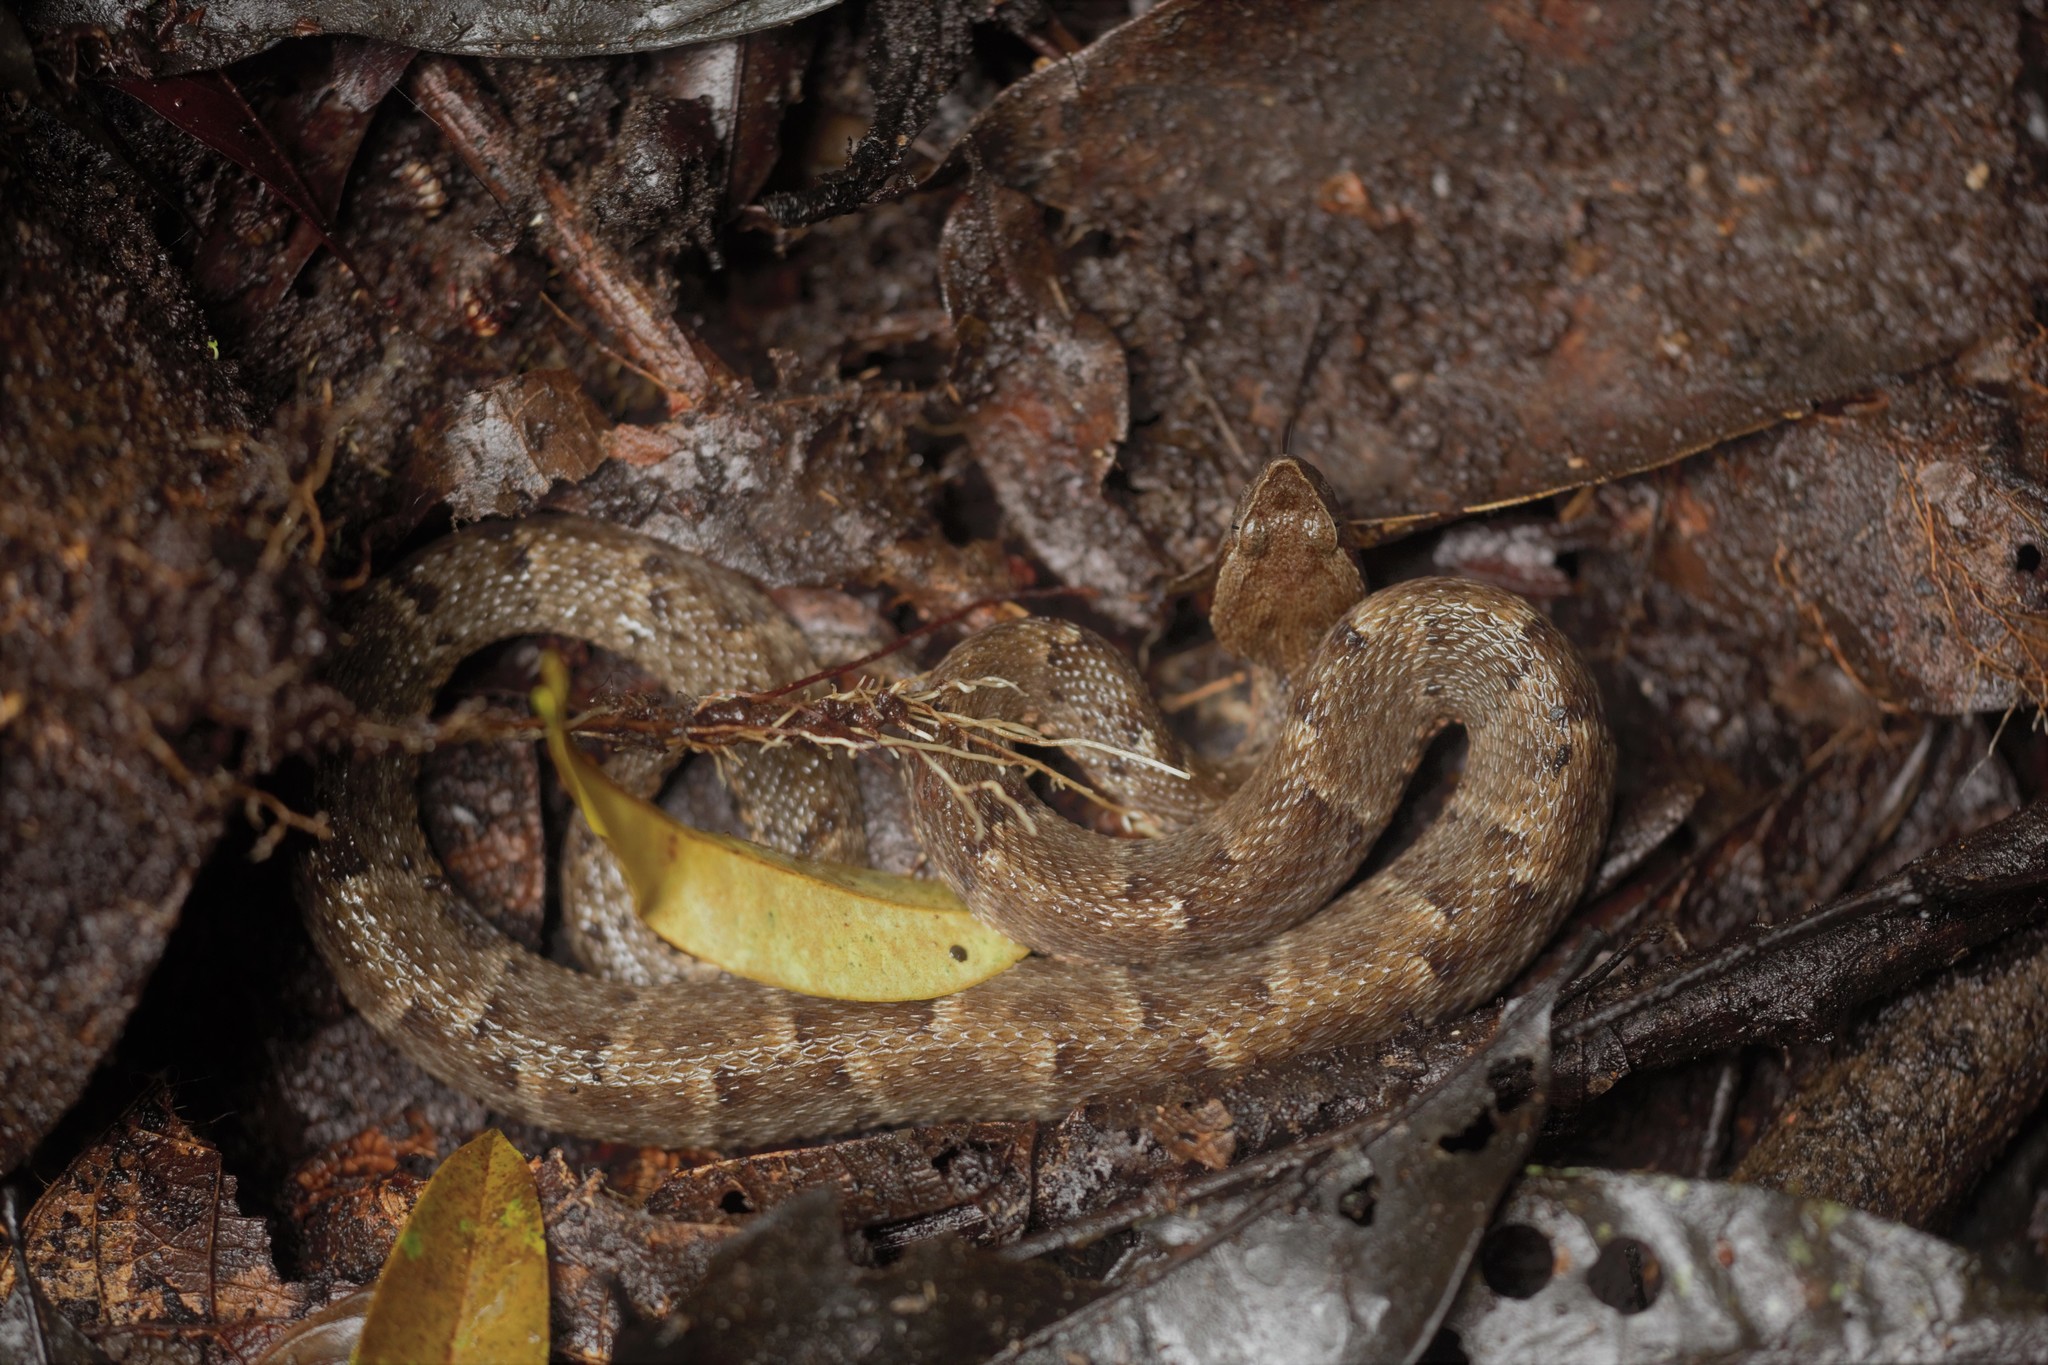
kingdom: Animalia
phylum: Chordata
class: Squamata
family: Viperidae
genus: Bothrops
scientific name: Bothrops atrox
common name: Common lancehead
